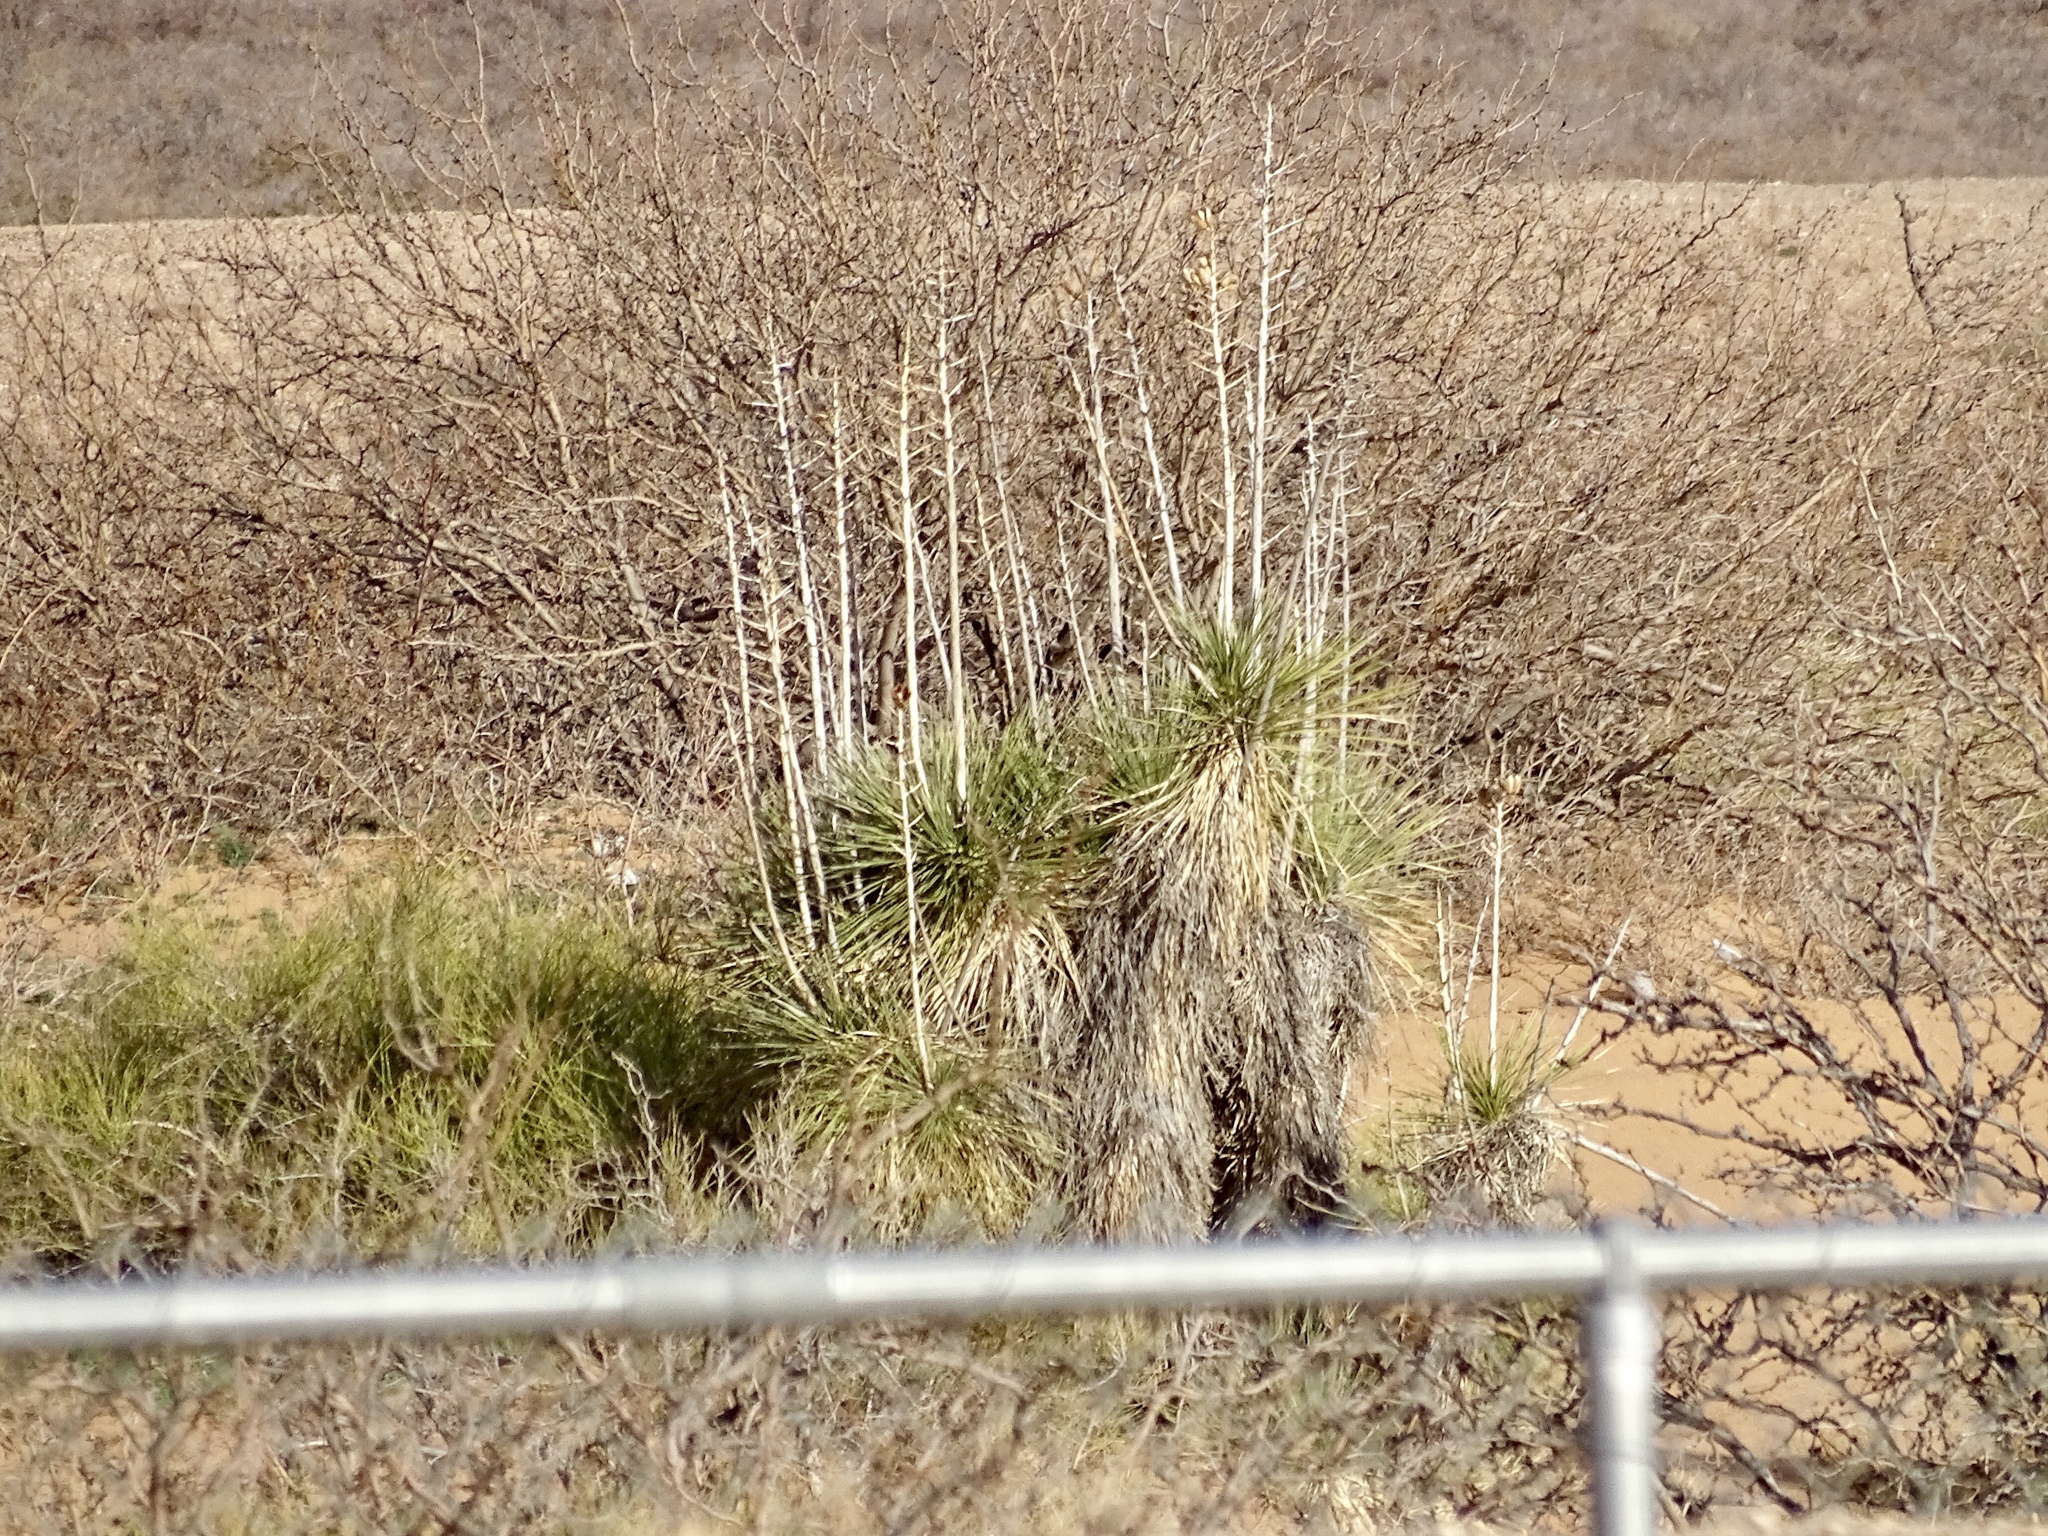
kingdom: Plantae
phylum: Tracheophyta
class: Liliopsida
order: Asparagales
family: Asparagaceae
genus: Yucca
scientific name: Yucca elata
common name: Palmella
